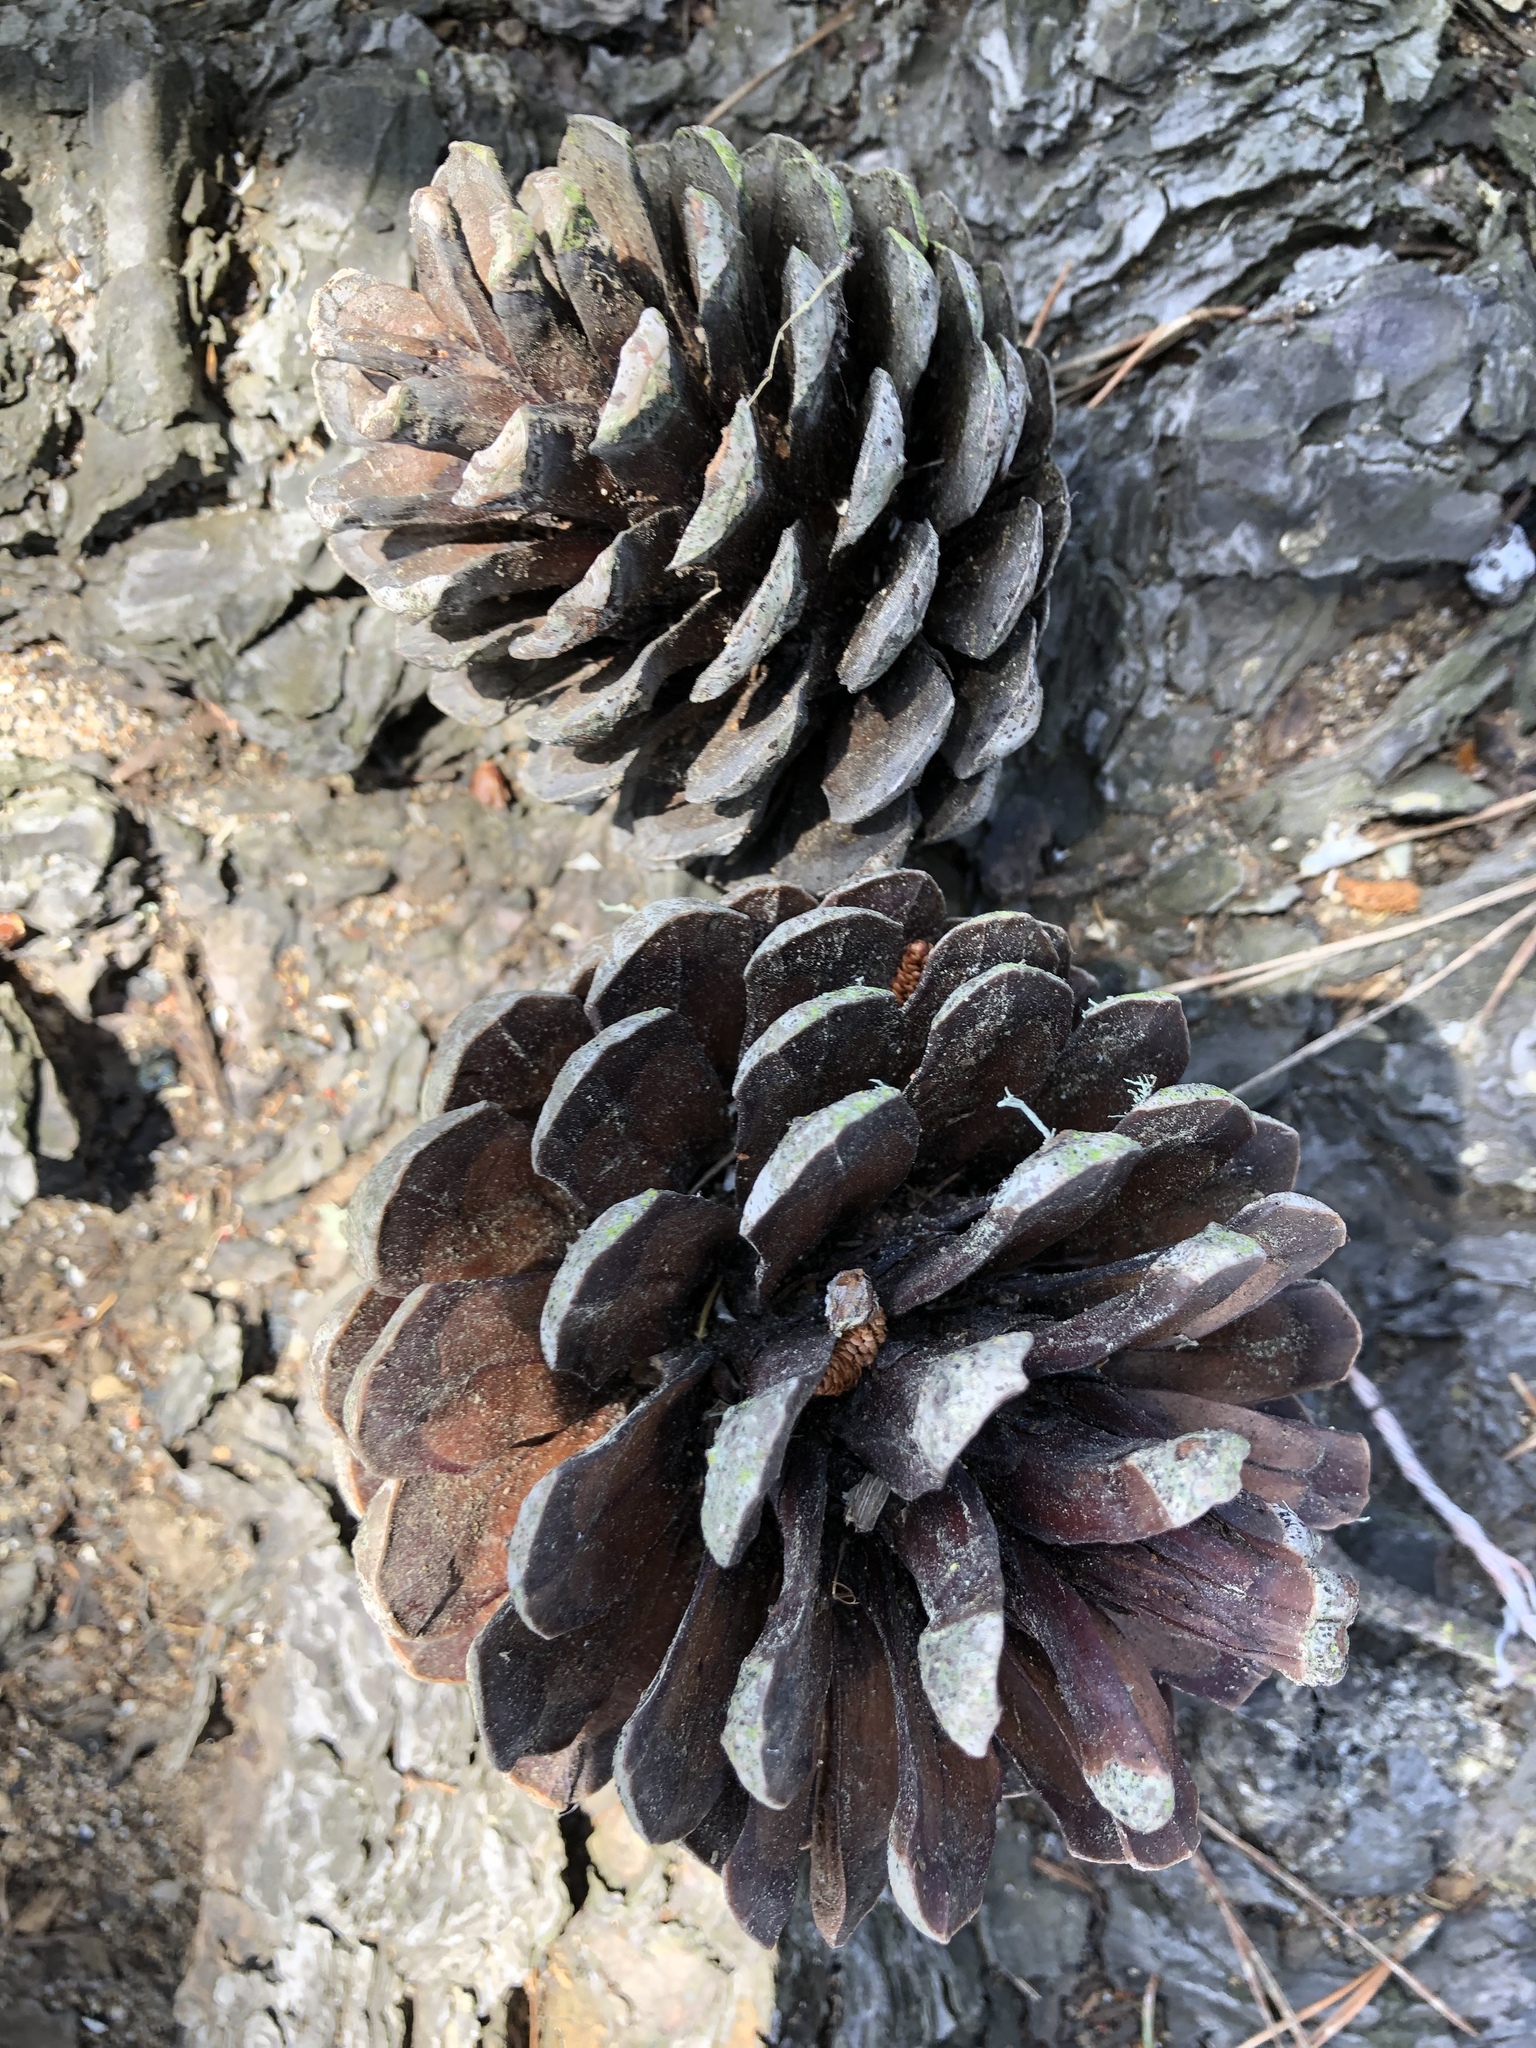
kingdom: Plantae
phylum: Tracheophyta
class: Pinopsida
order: Pinales
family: Pinaceae
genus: Pinus
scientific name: Pinus radiata
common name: Monterey pine
